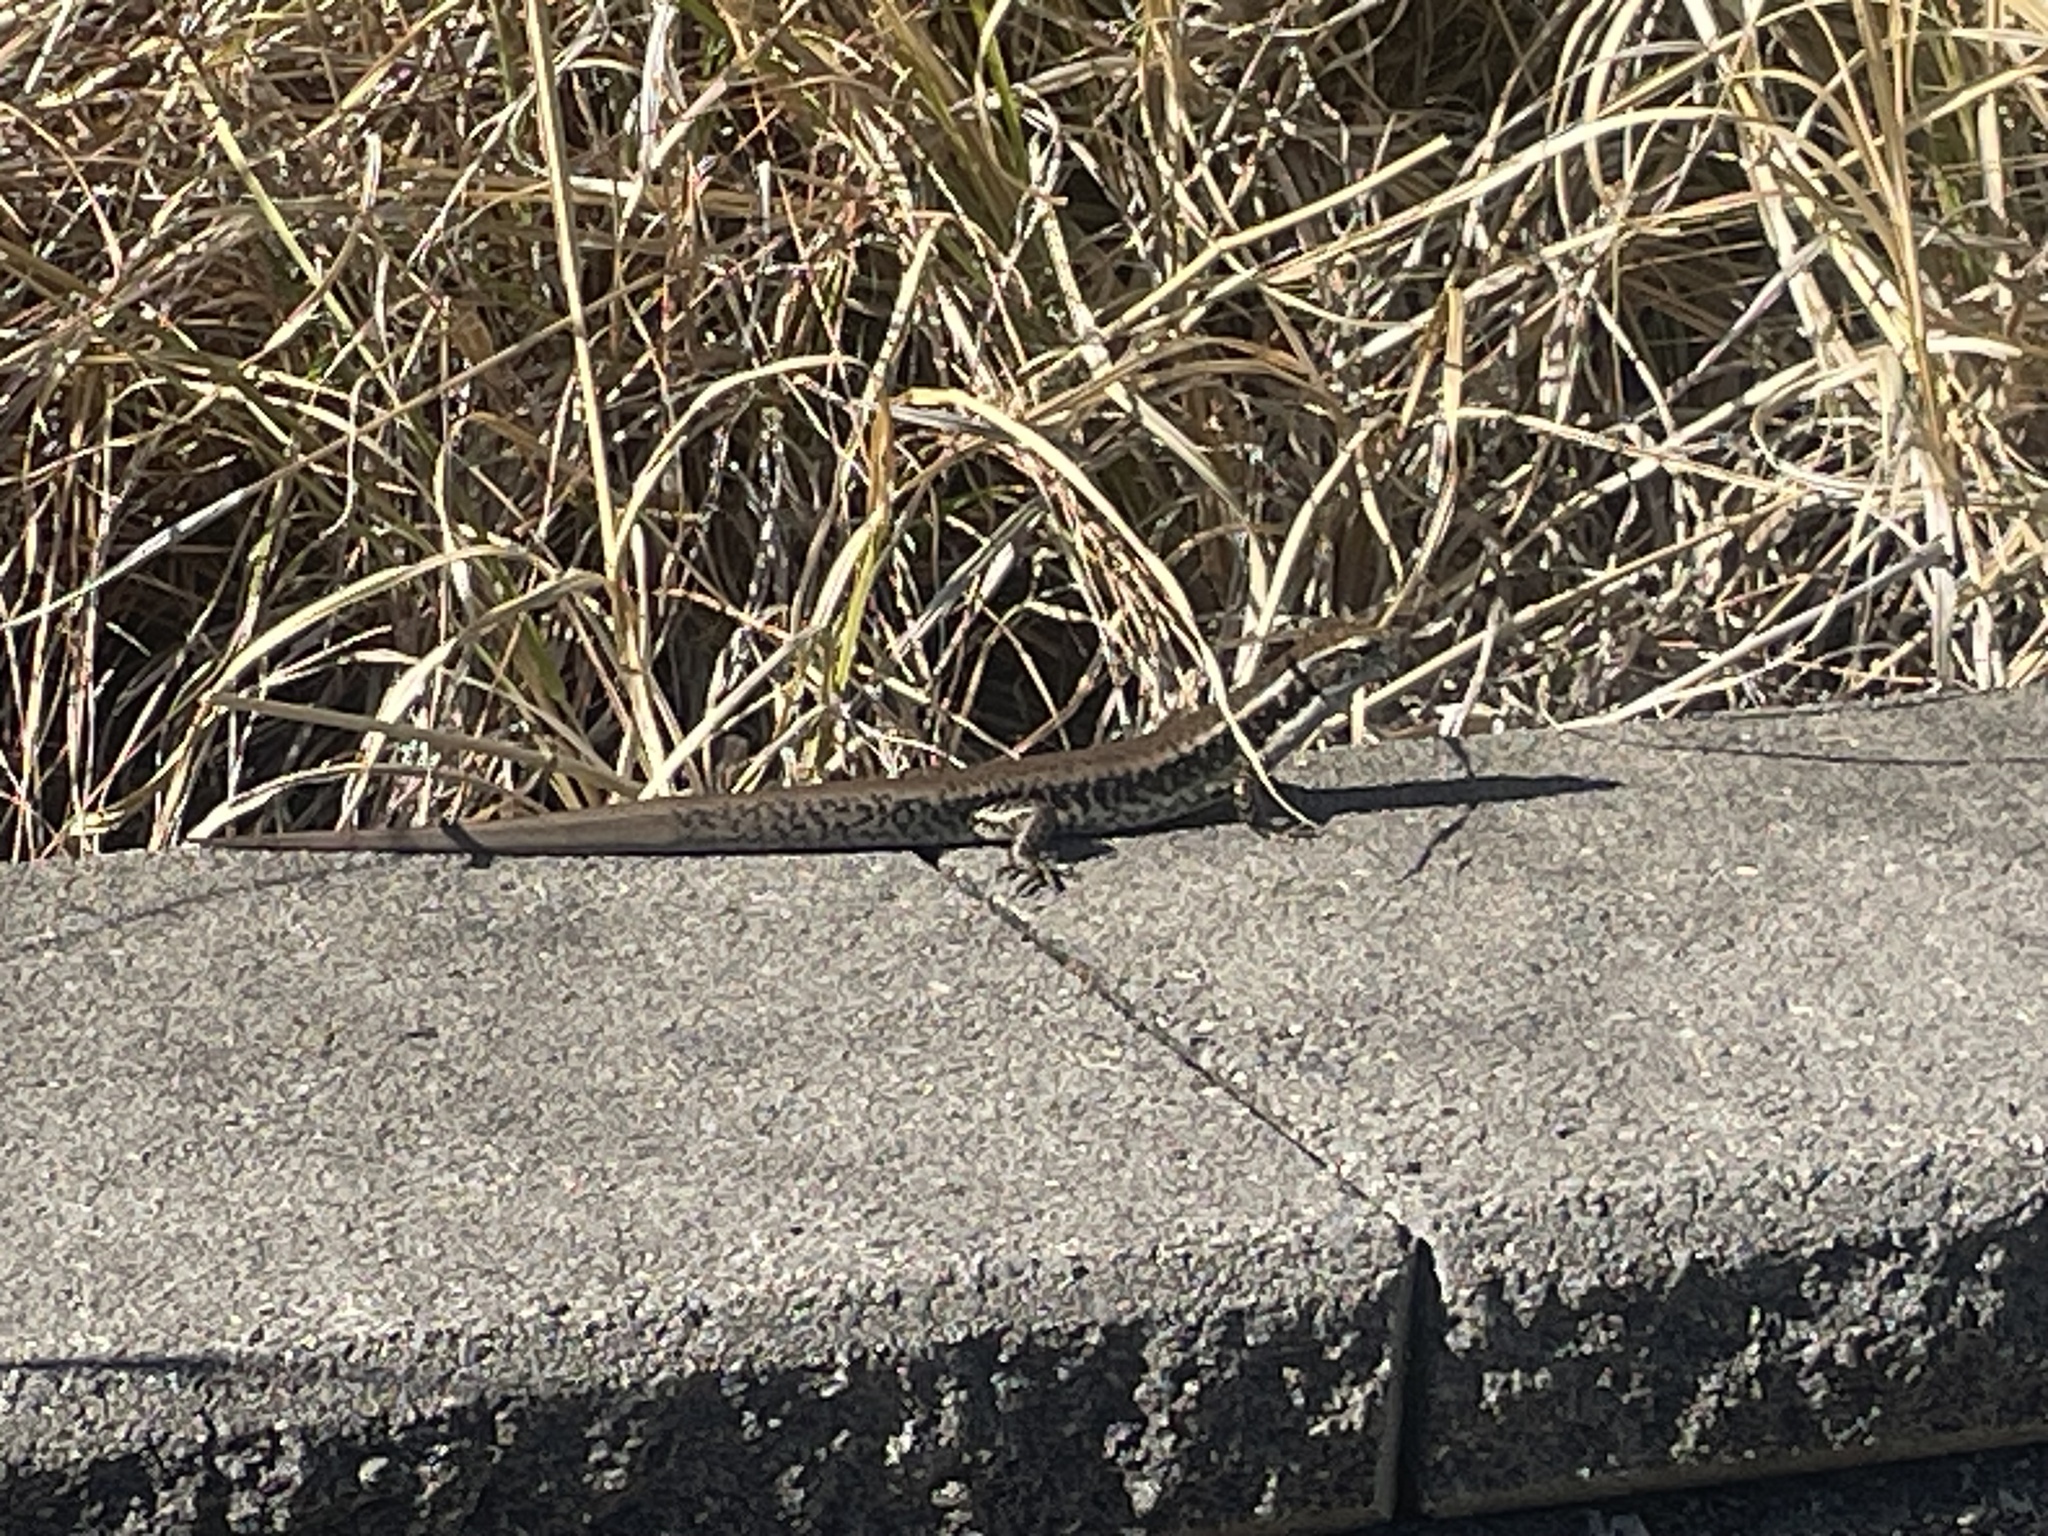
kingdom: Animalia
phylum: Chordata
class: Squamata
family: Scincidae
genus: Eulamprus
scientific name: Eulamprus quoyii
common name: Eastern water skink
